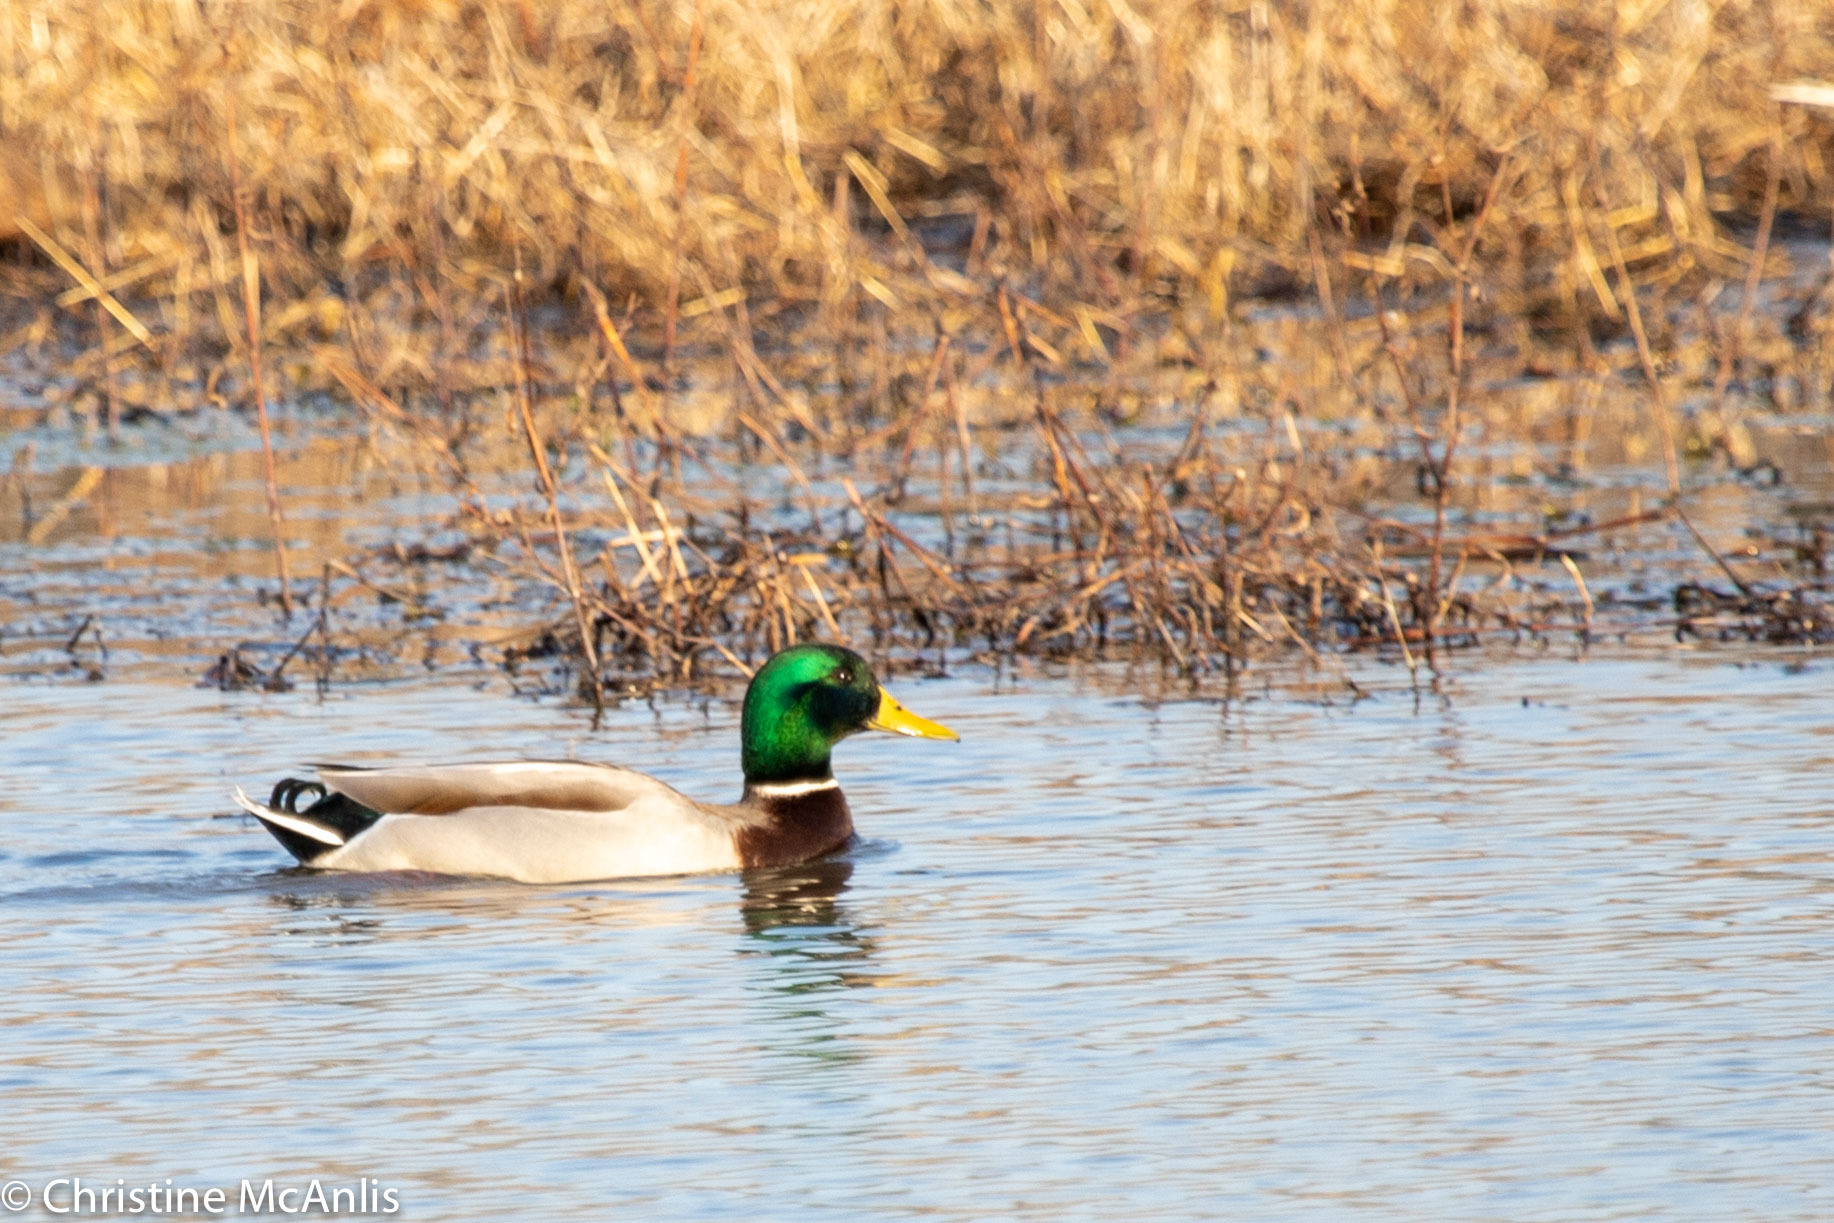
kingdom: Animalia
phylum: Chordata
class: Aves
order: Anseriformes
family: Anatidae
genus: Anas
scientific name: Anas platyrhynchos
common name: Mallard
